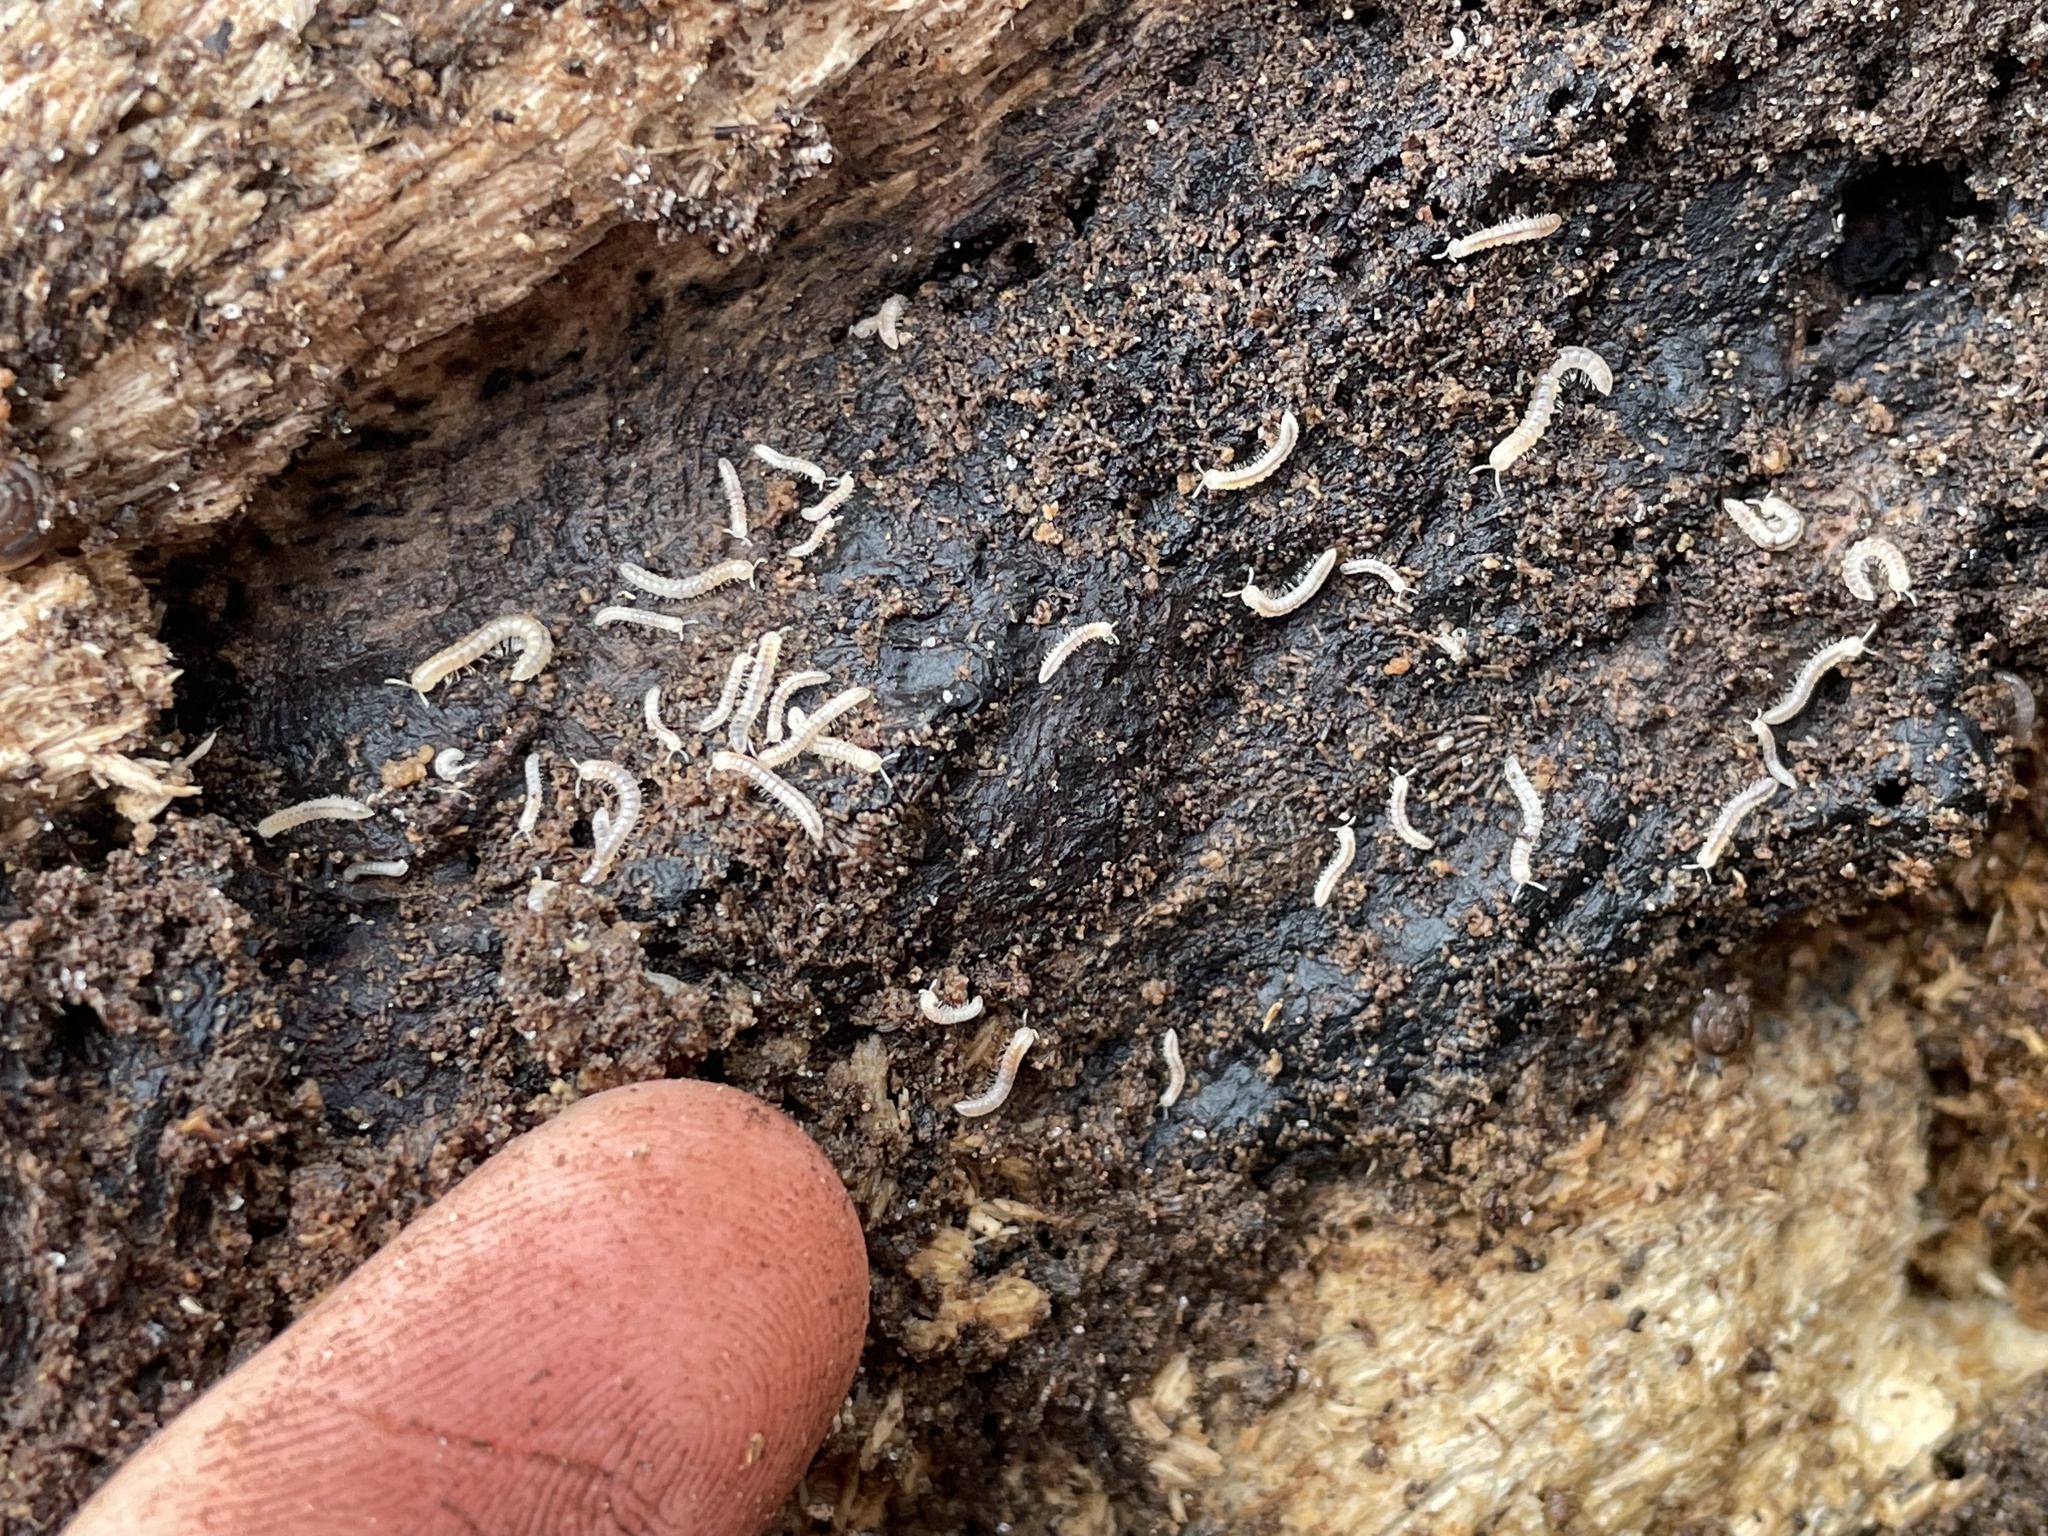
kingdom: Animalia
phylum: Arthropoda
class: Diplopoda
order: Polydesmida
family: Paradoxosomatidae
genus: Oxidus
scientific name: Oxidus gracilis
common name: Greenhouse millipede
